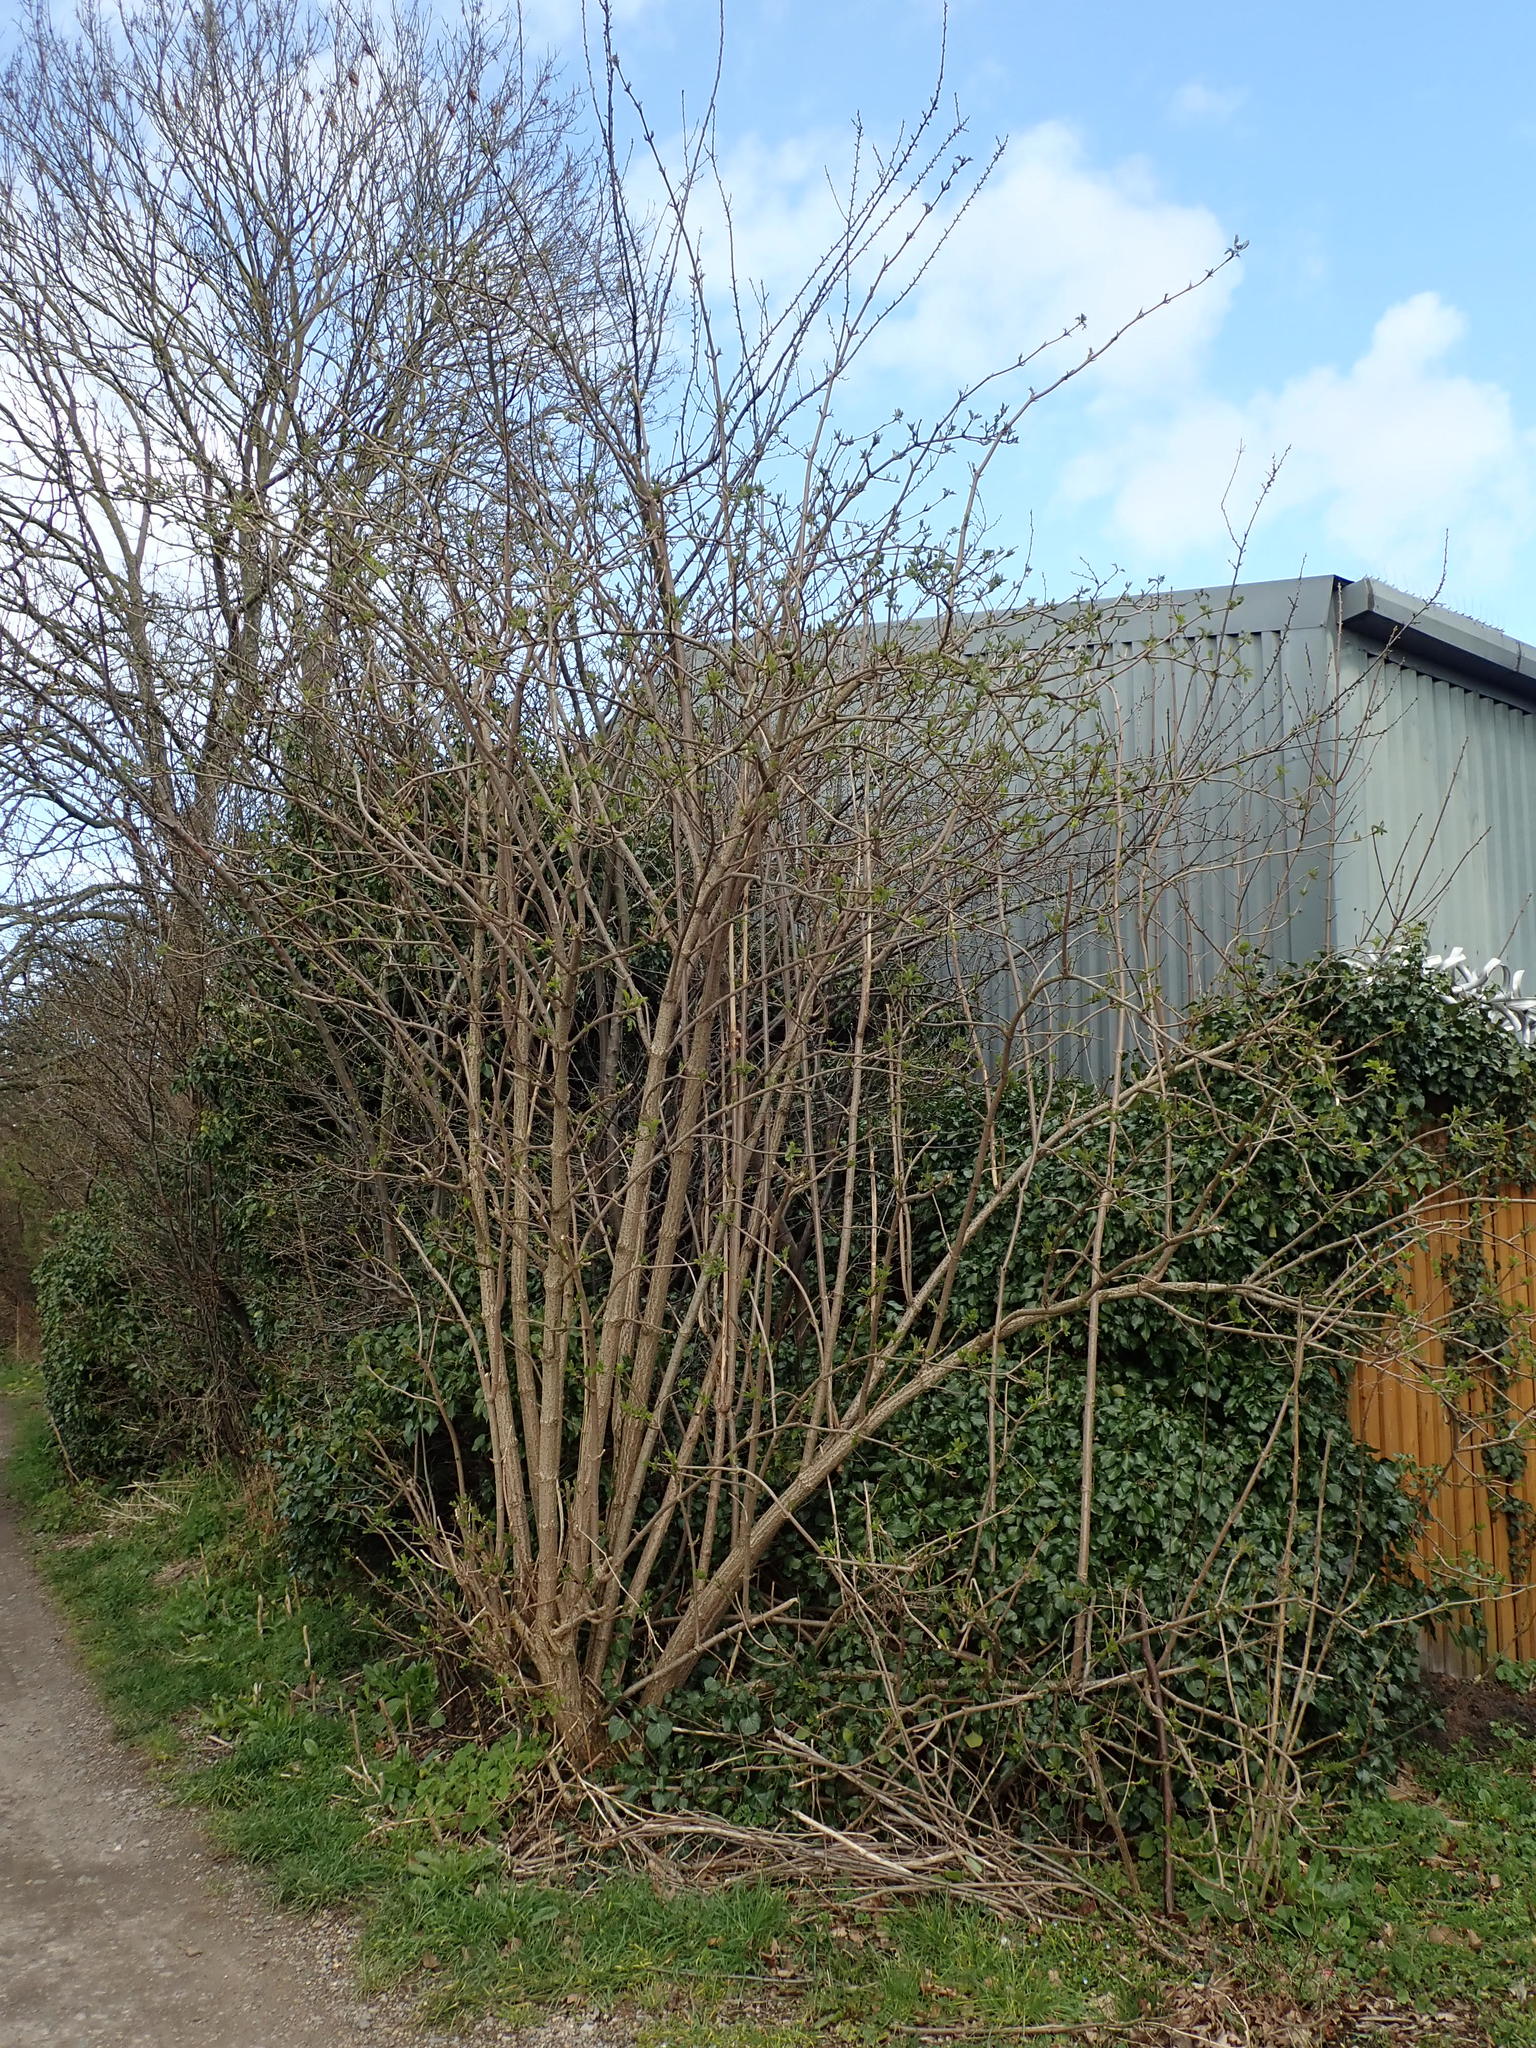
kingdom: Plantae
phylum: Tracheophyta
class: Magnoliopsida
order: Dipsacales
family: Viburnaceae
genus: Sambucus
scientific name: Sambucus nigra
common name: Elder
